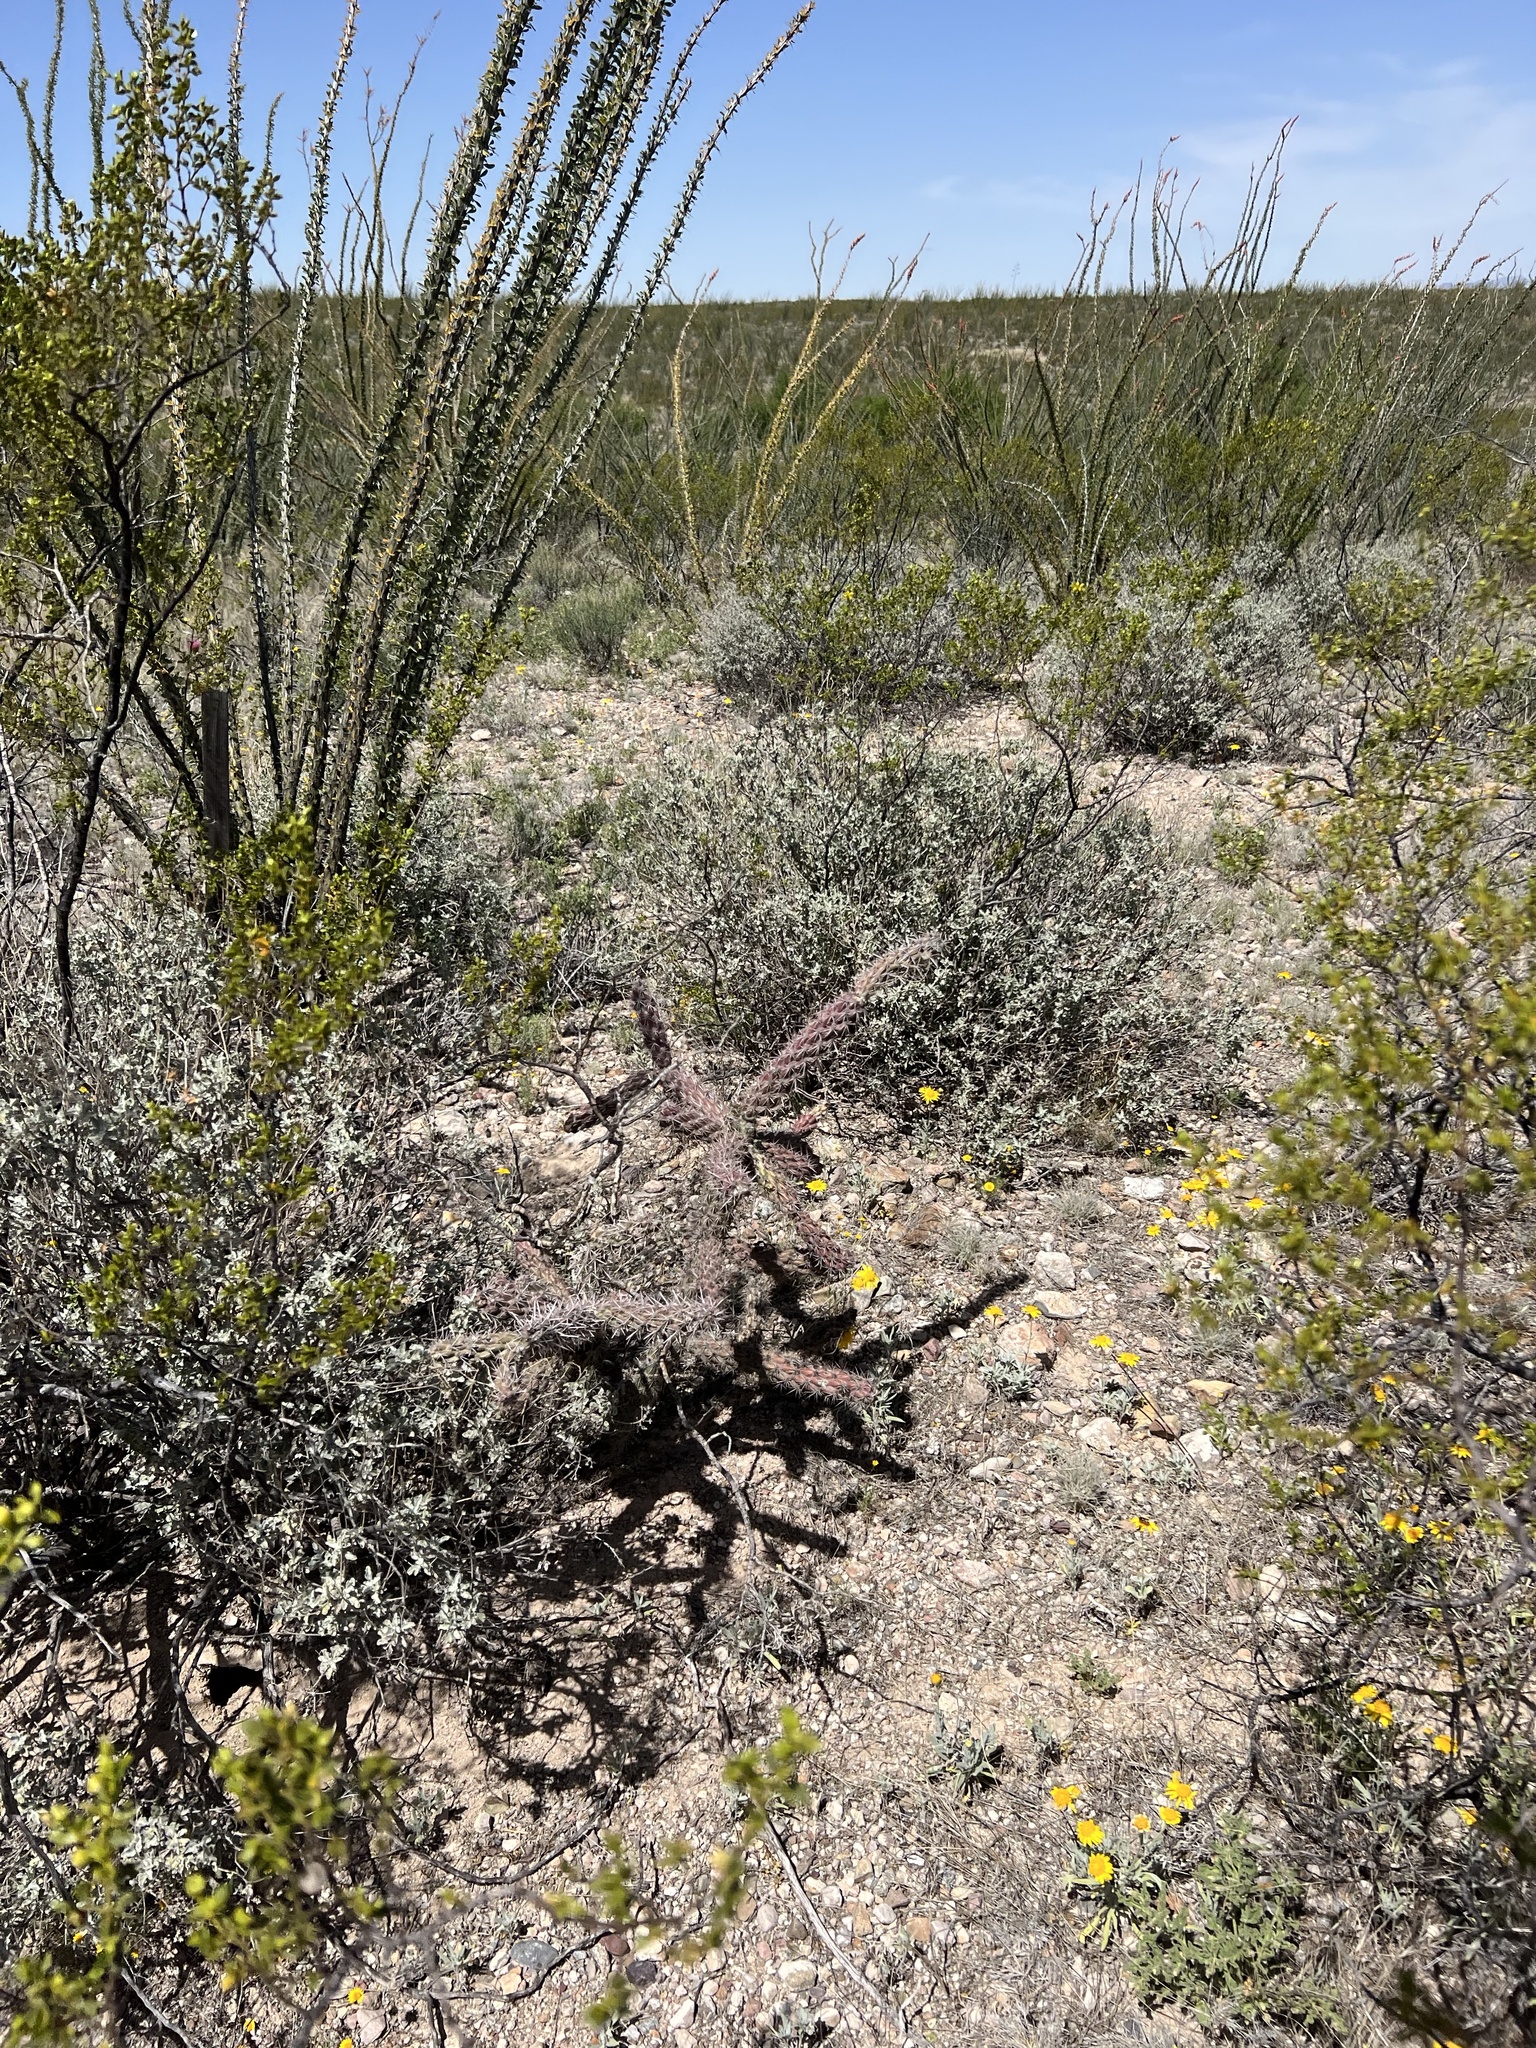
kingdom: Plantae
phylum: Tracheophyta
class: Magnoliopsida
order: Caryophyllales
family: Cactaceae
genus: Cylindropuntia
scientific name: Cylindropuntia imbricata
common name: Candelabrum cactus
